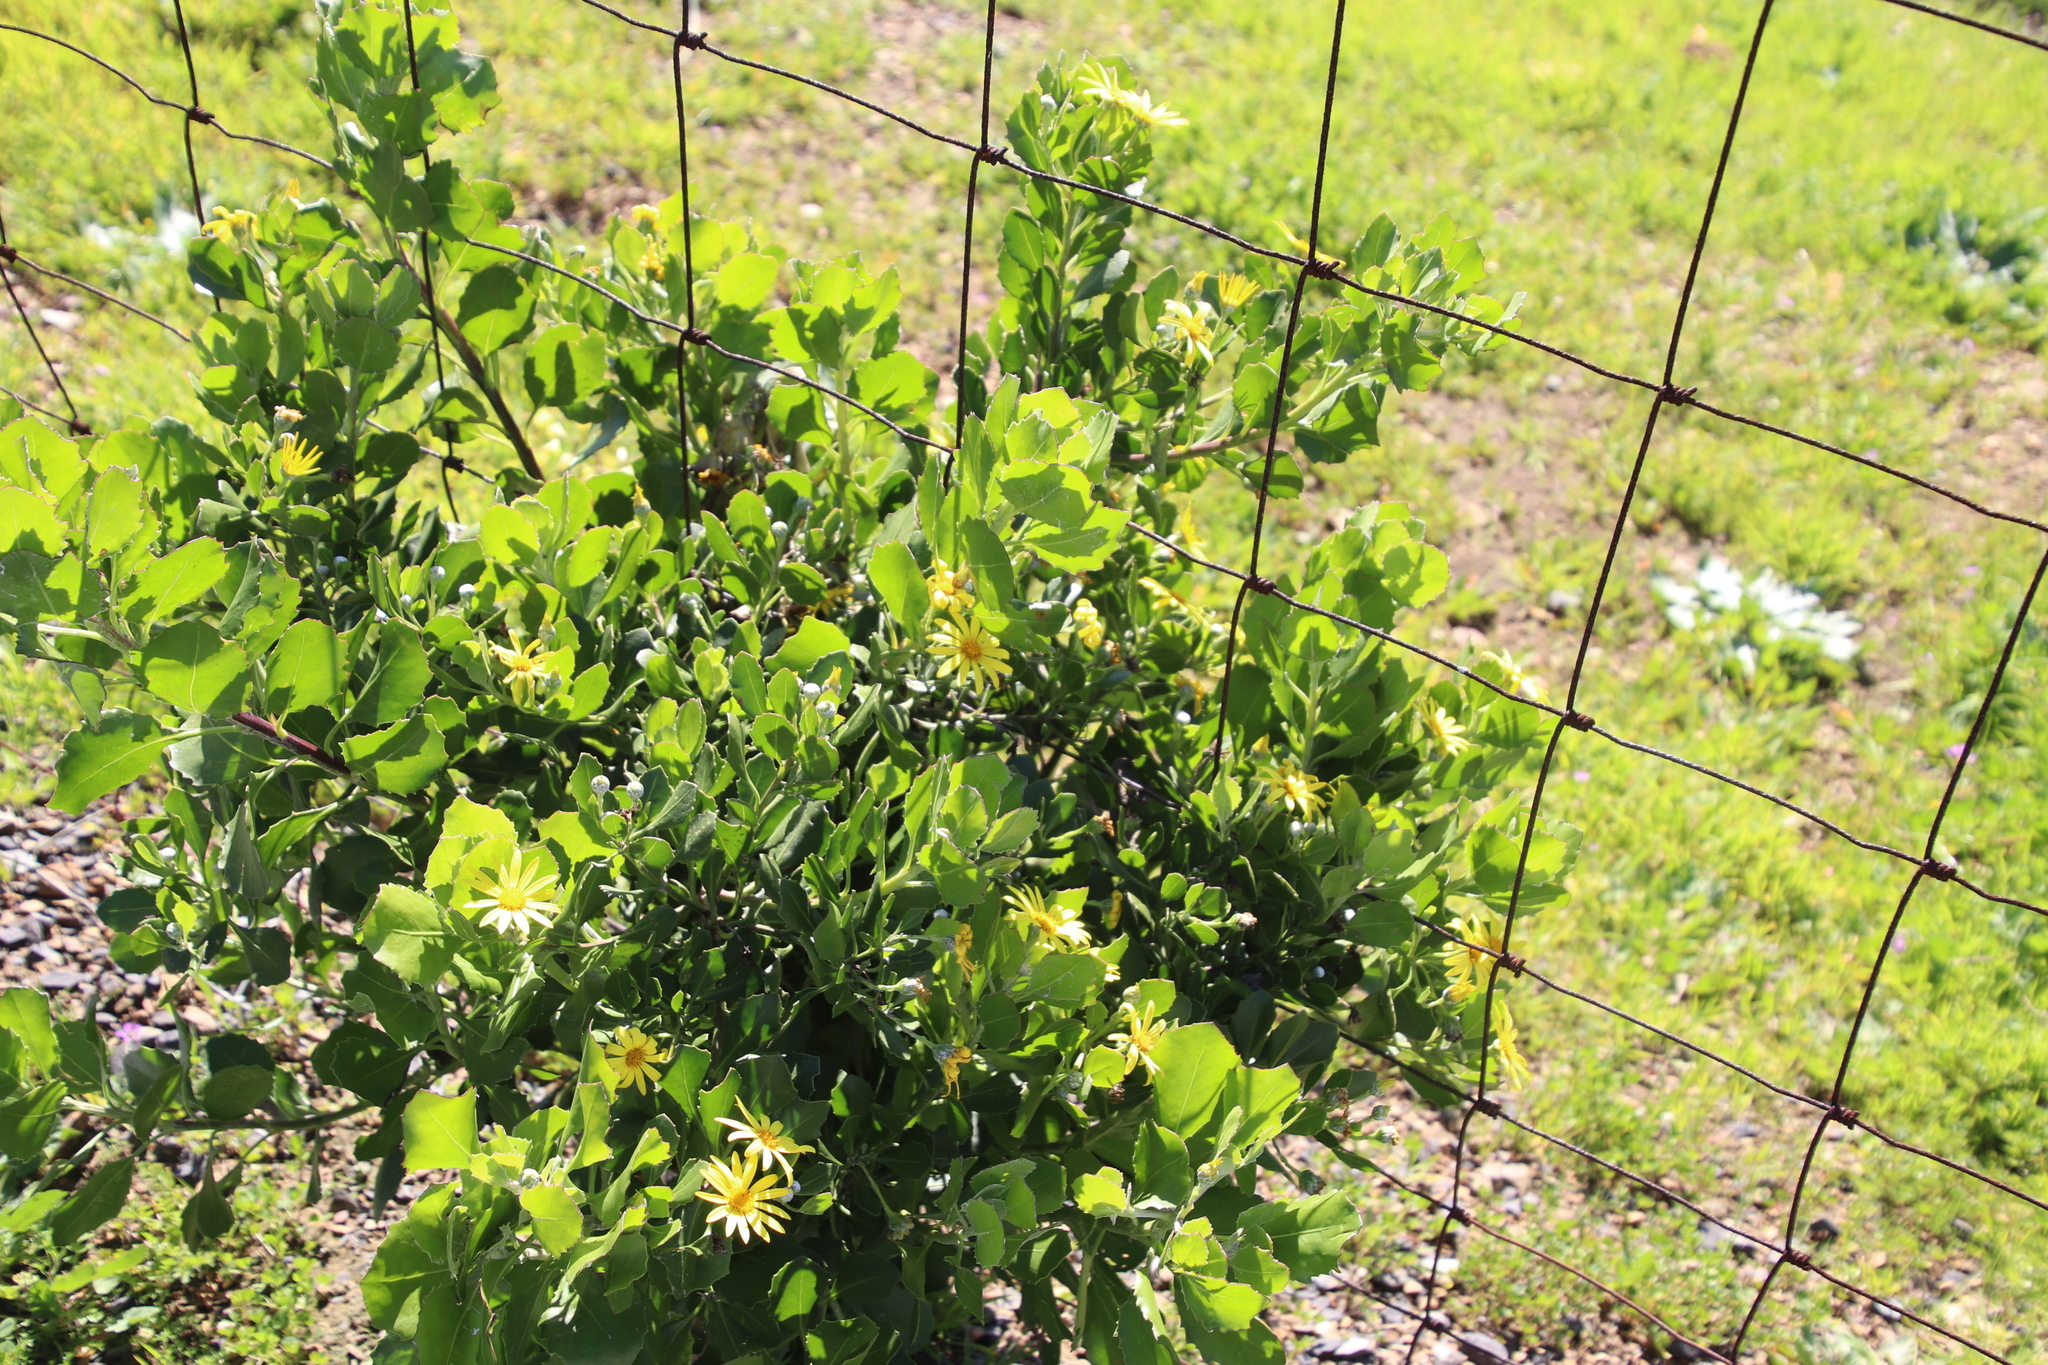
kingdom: Plantae
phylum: Tracheophyta
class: Magnoliopsida
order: Asterales
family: Asteraceae
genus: Osteospermum
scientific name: Osteospermum moniliferum
